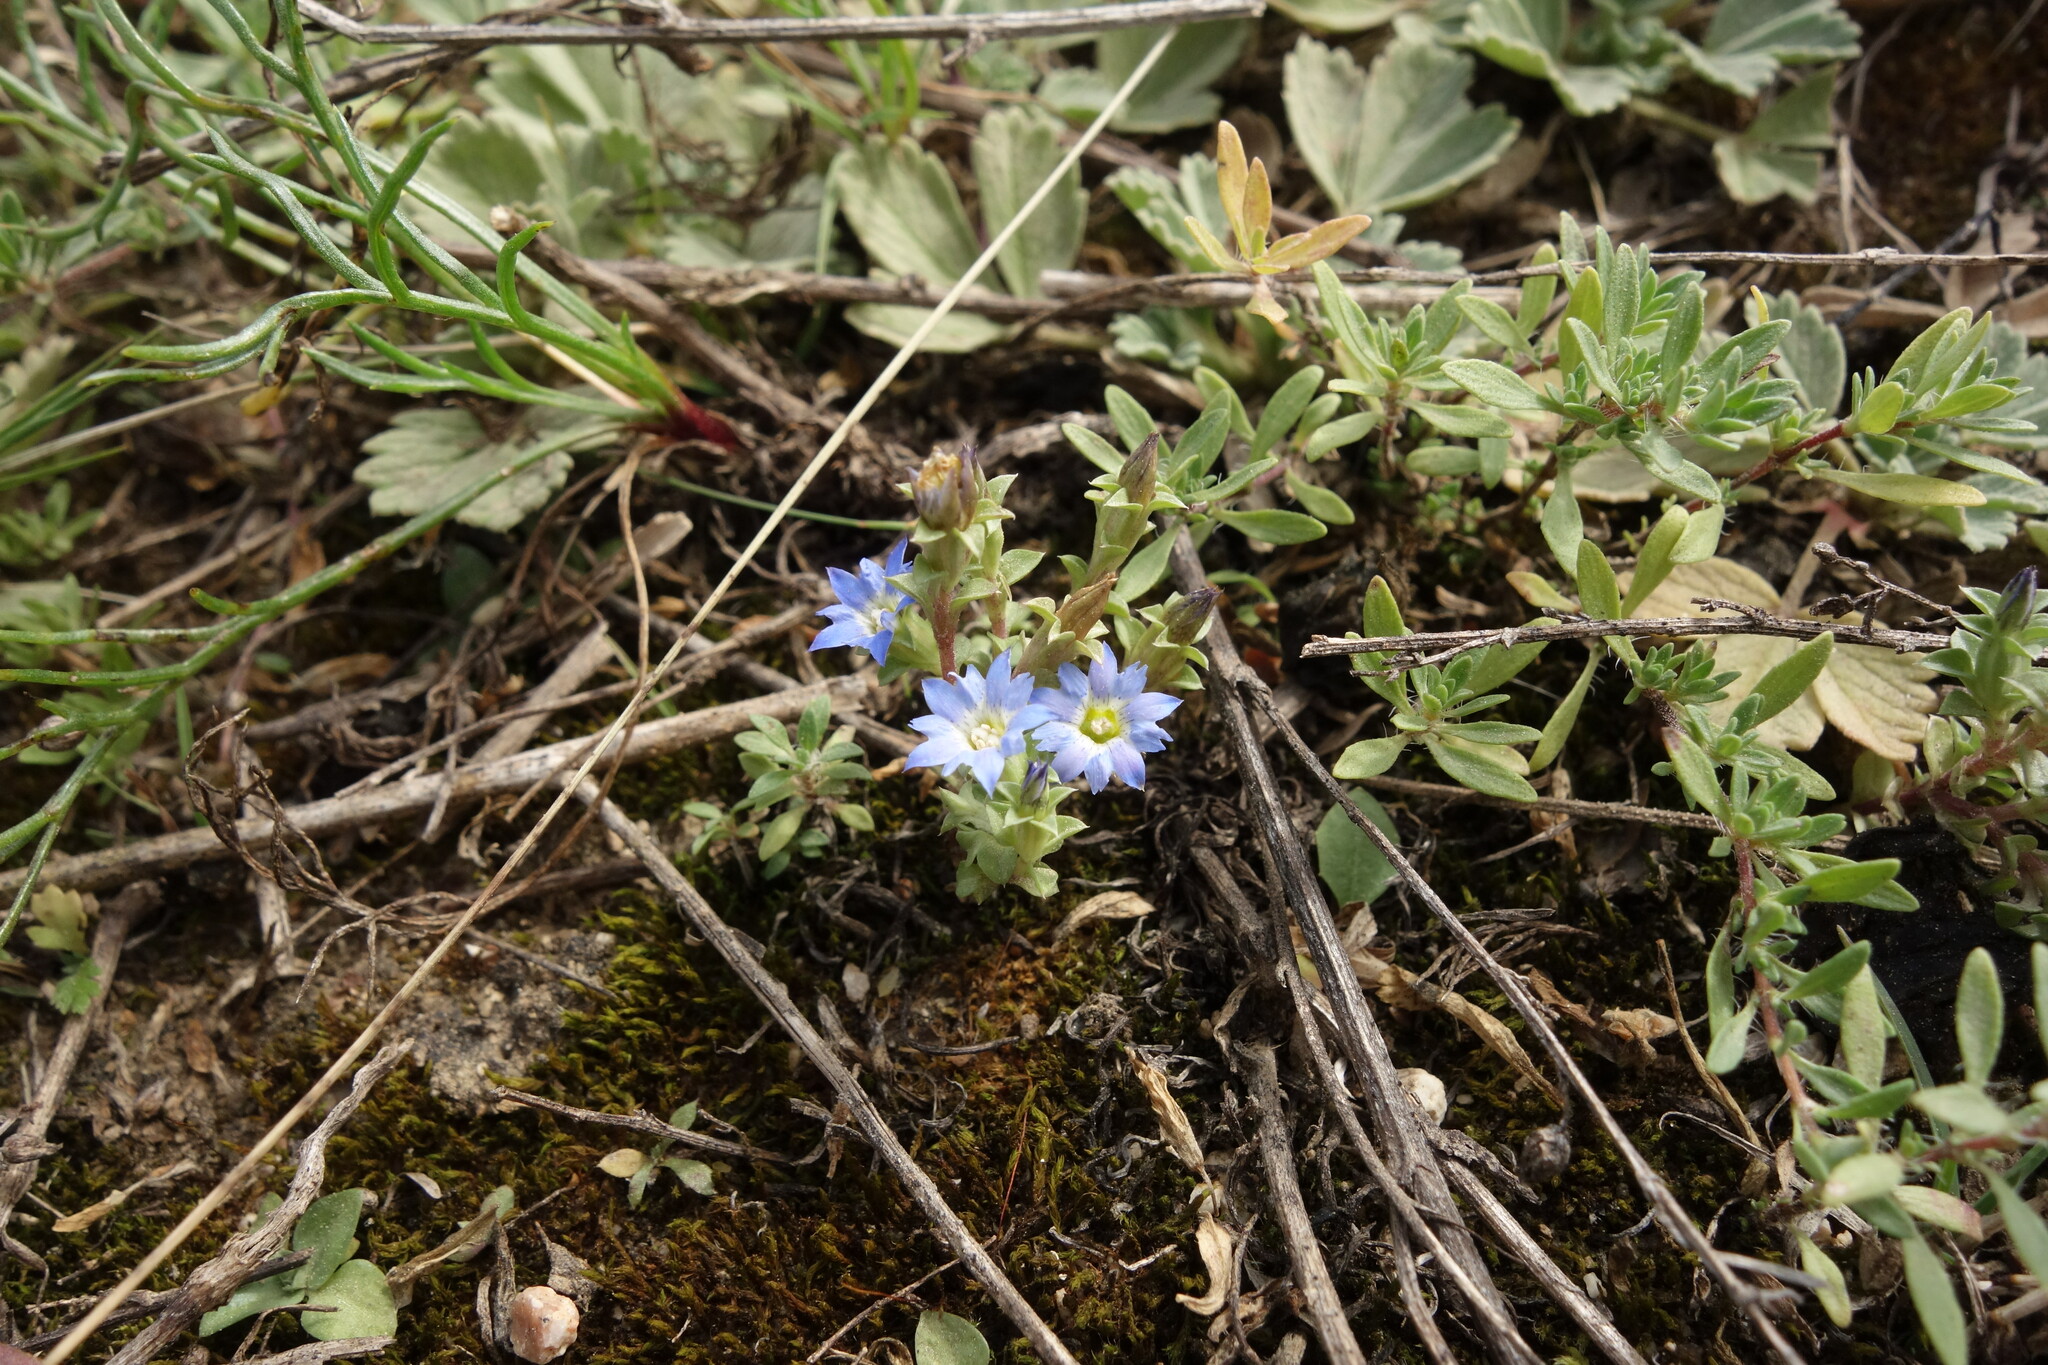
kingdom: Plantae
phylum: Tracheophyta
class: Magnoliopsida
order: Gentianales
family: Gentianaceae
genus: Gentiana
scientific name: Gentiana squarrosa
